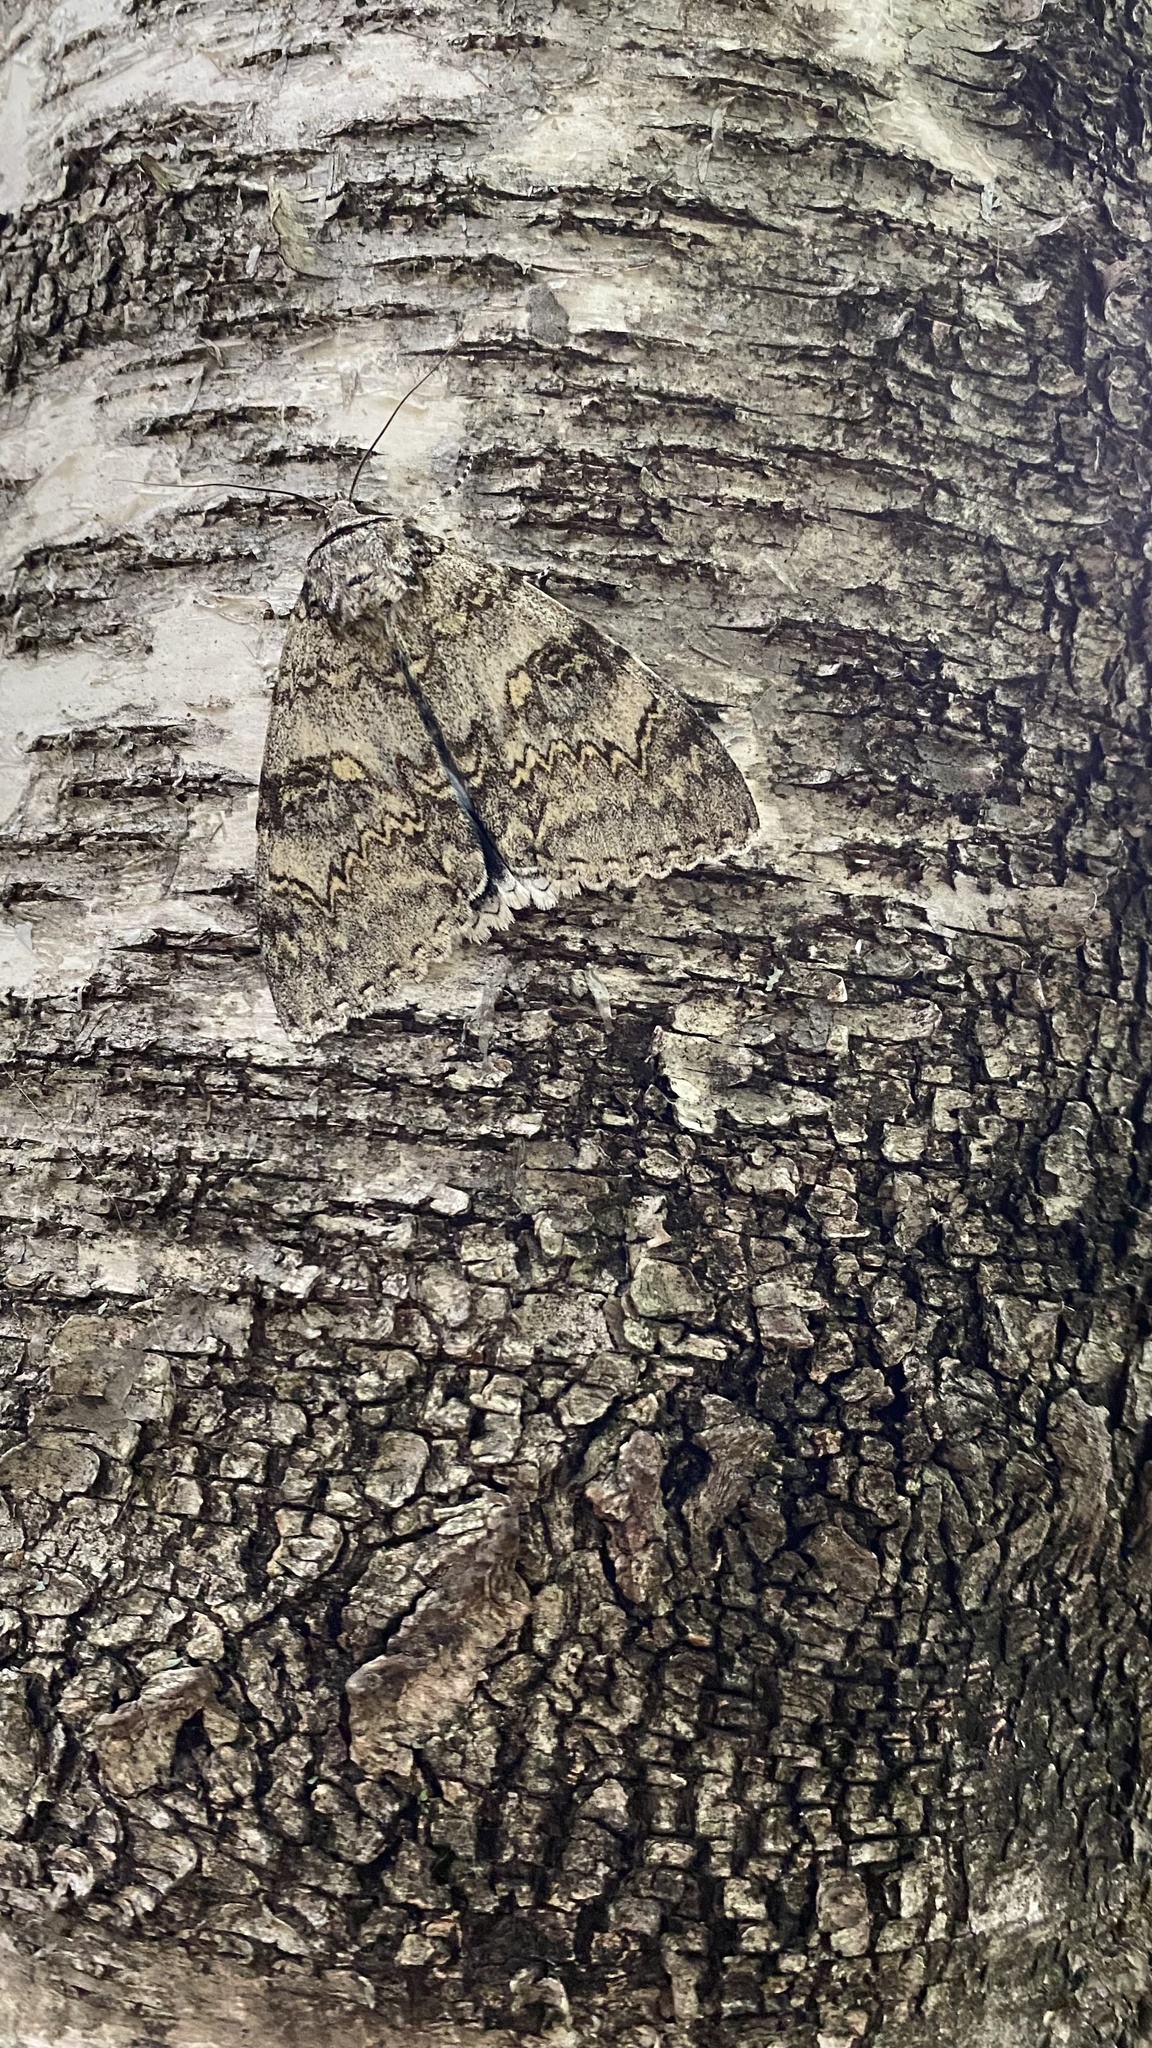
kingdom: Animalia
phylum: Arthropoda
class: Insecta
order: Lepidoptera
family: Erebidae
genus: Catocala
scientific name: Catocala fraxini
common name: Clifden nonpareil
